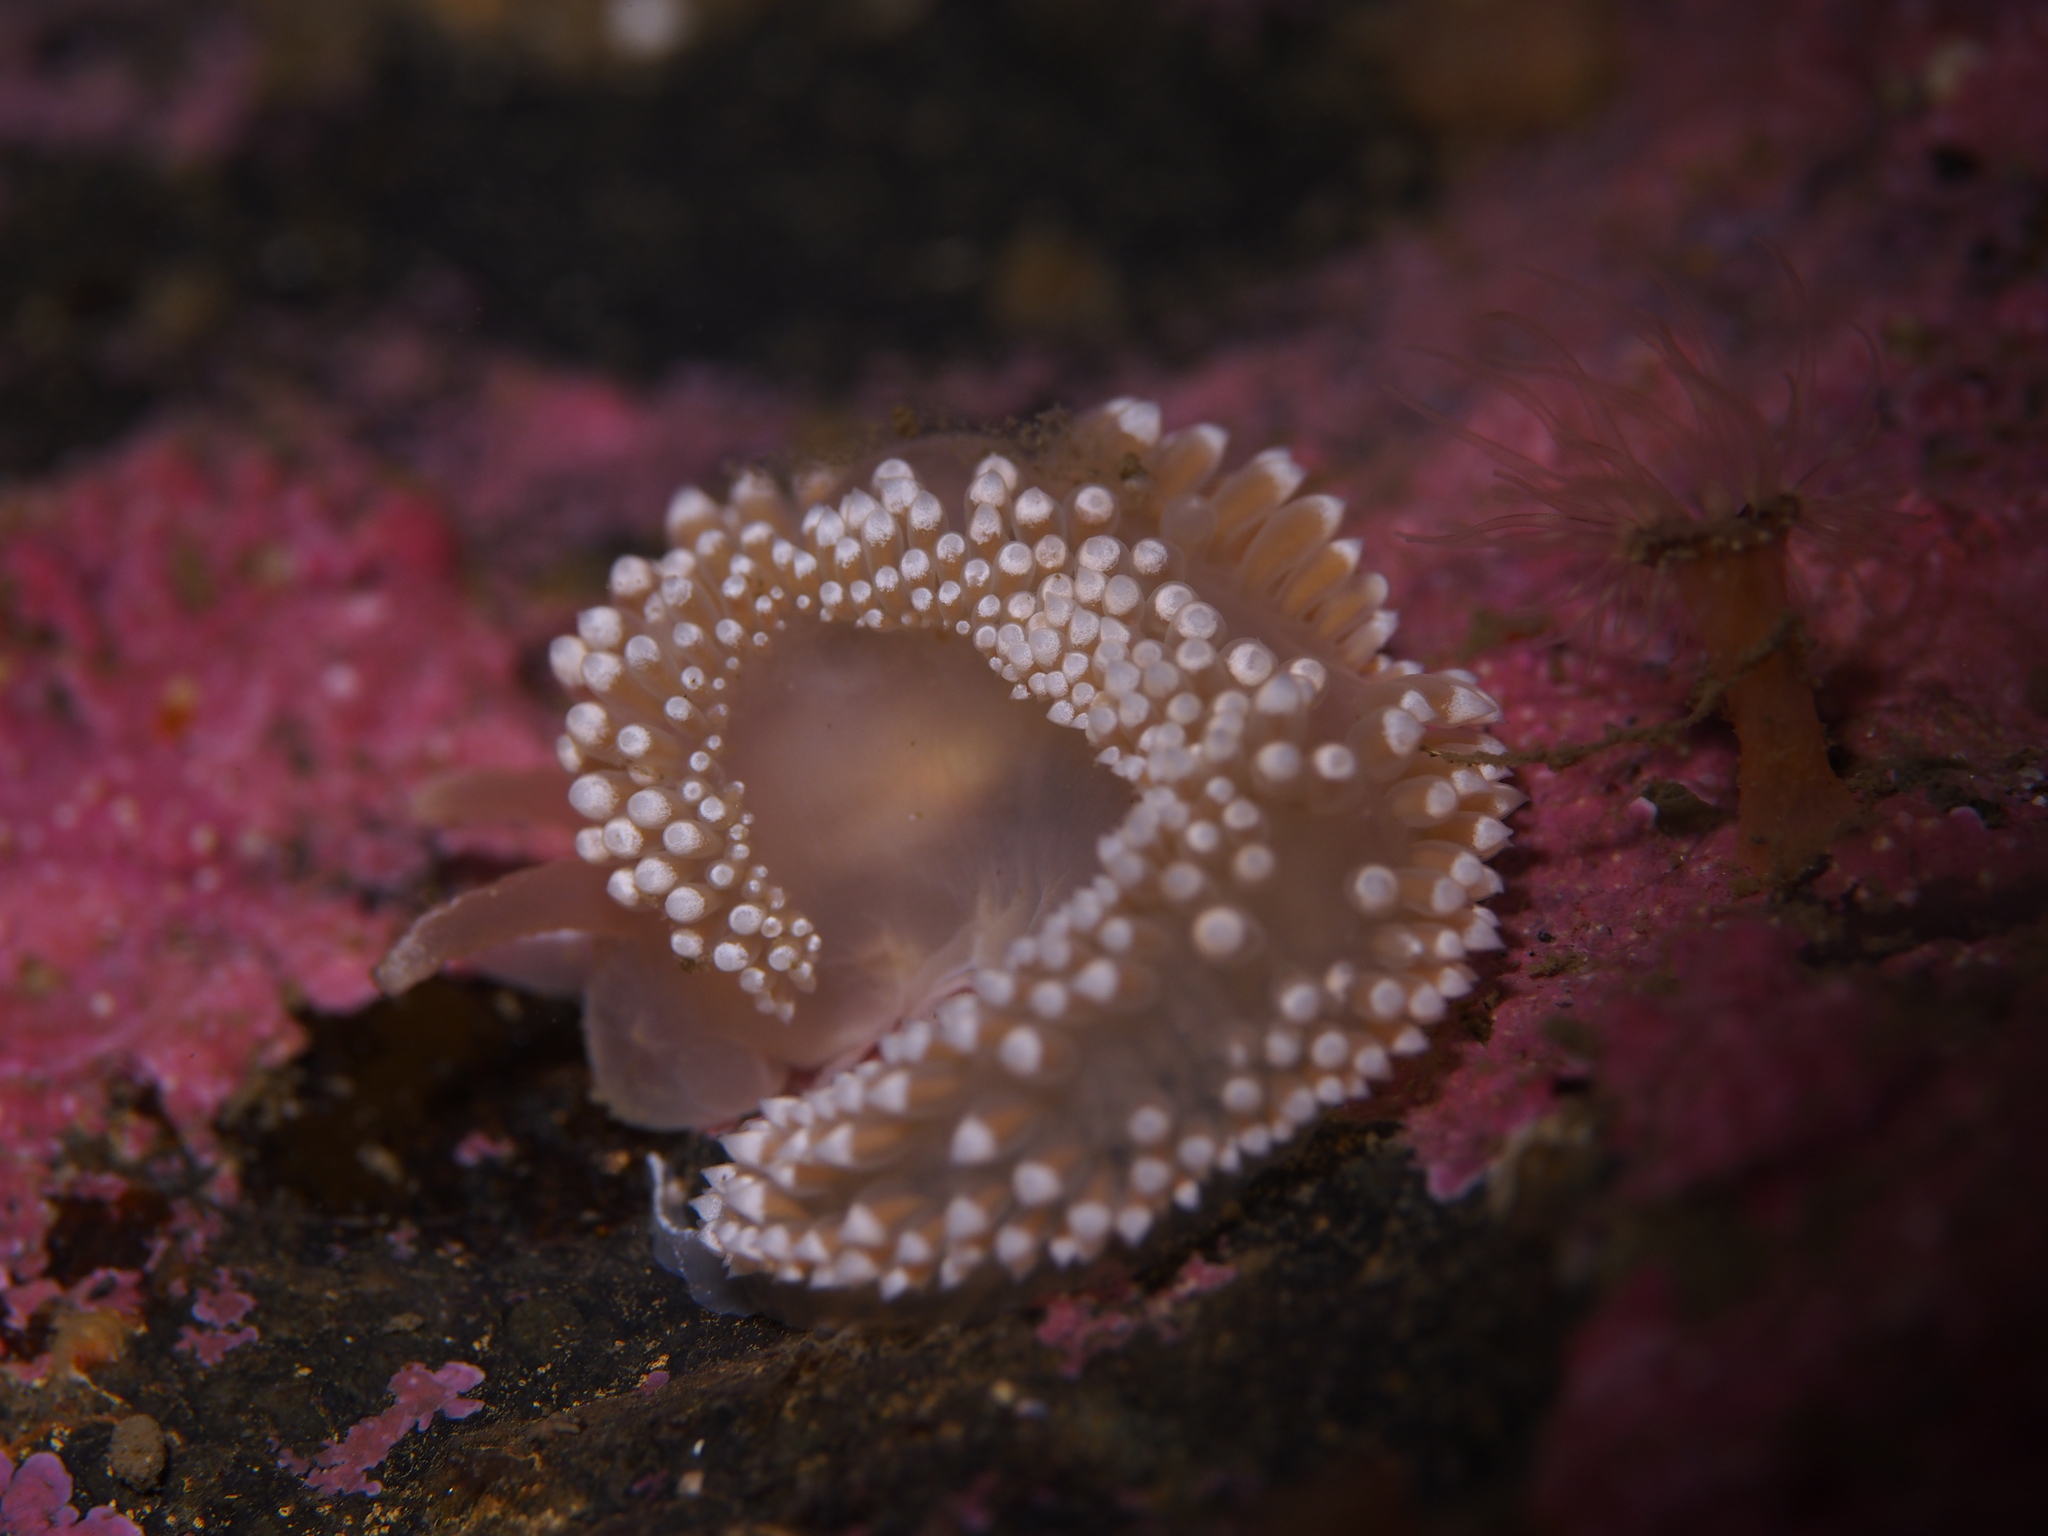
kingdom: Animalia
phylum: Mollusca
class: Gastropoda
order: Nudibranchia
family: Coryphellidae
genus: Coryphella
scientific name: Coryphella verrucosa
